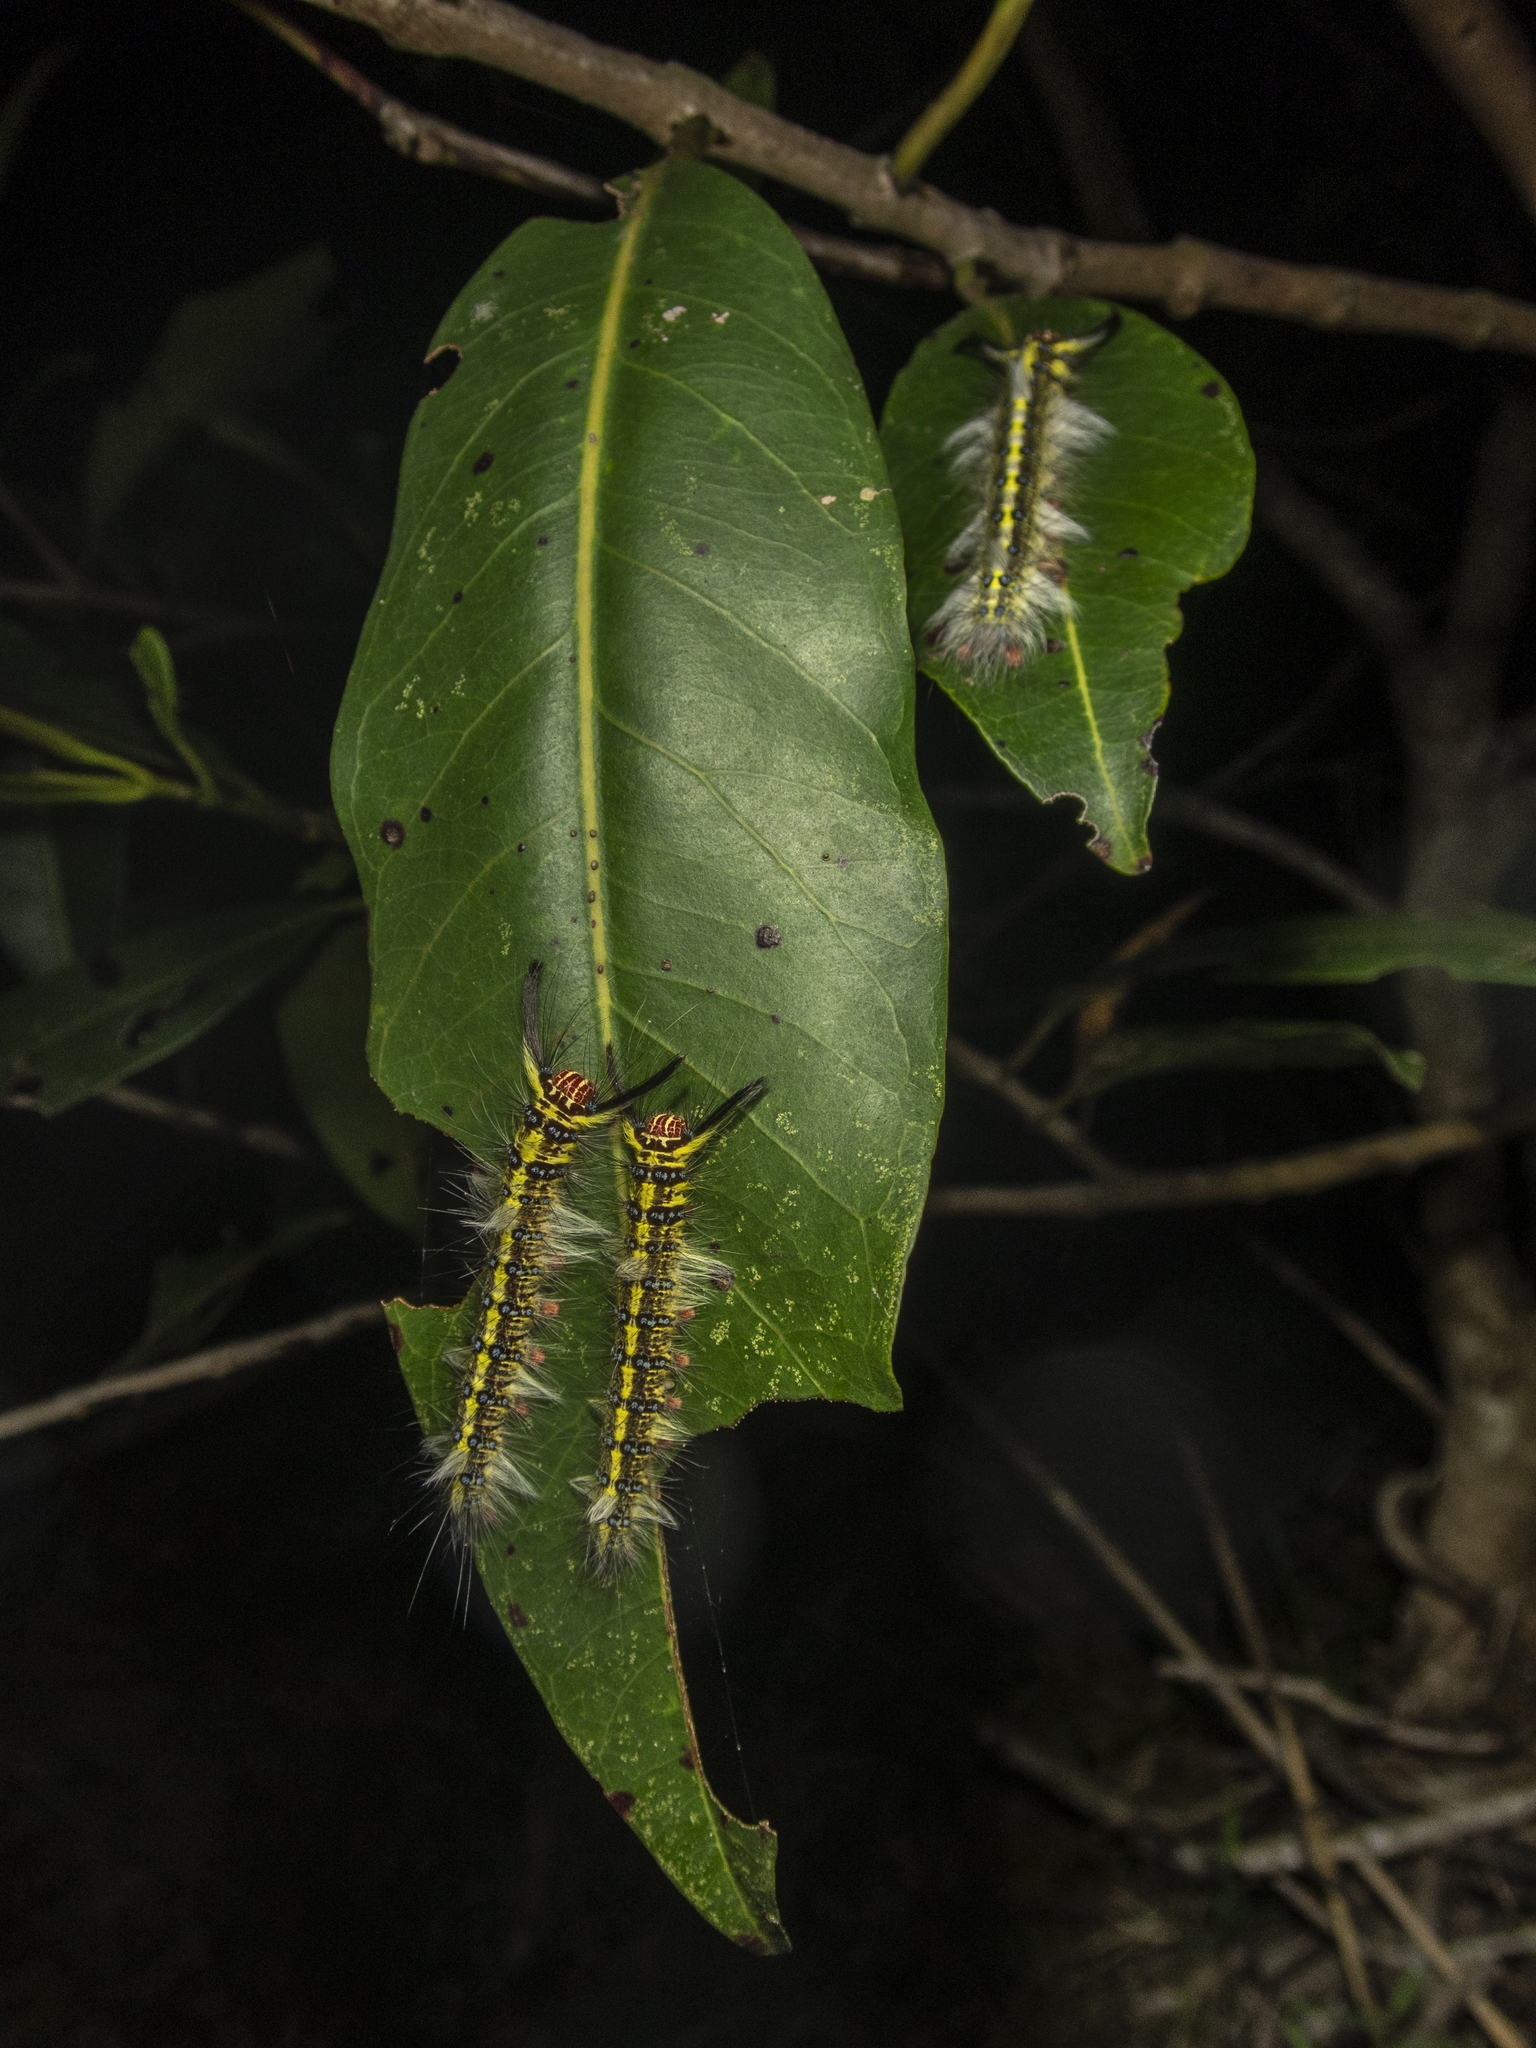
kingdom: Animalia
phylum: Arthropoda
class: Insecta
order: Lepidoptera
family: Lasiocampidae
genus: Trabala
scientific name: Trabala pallida
